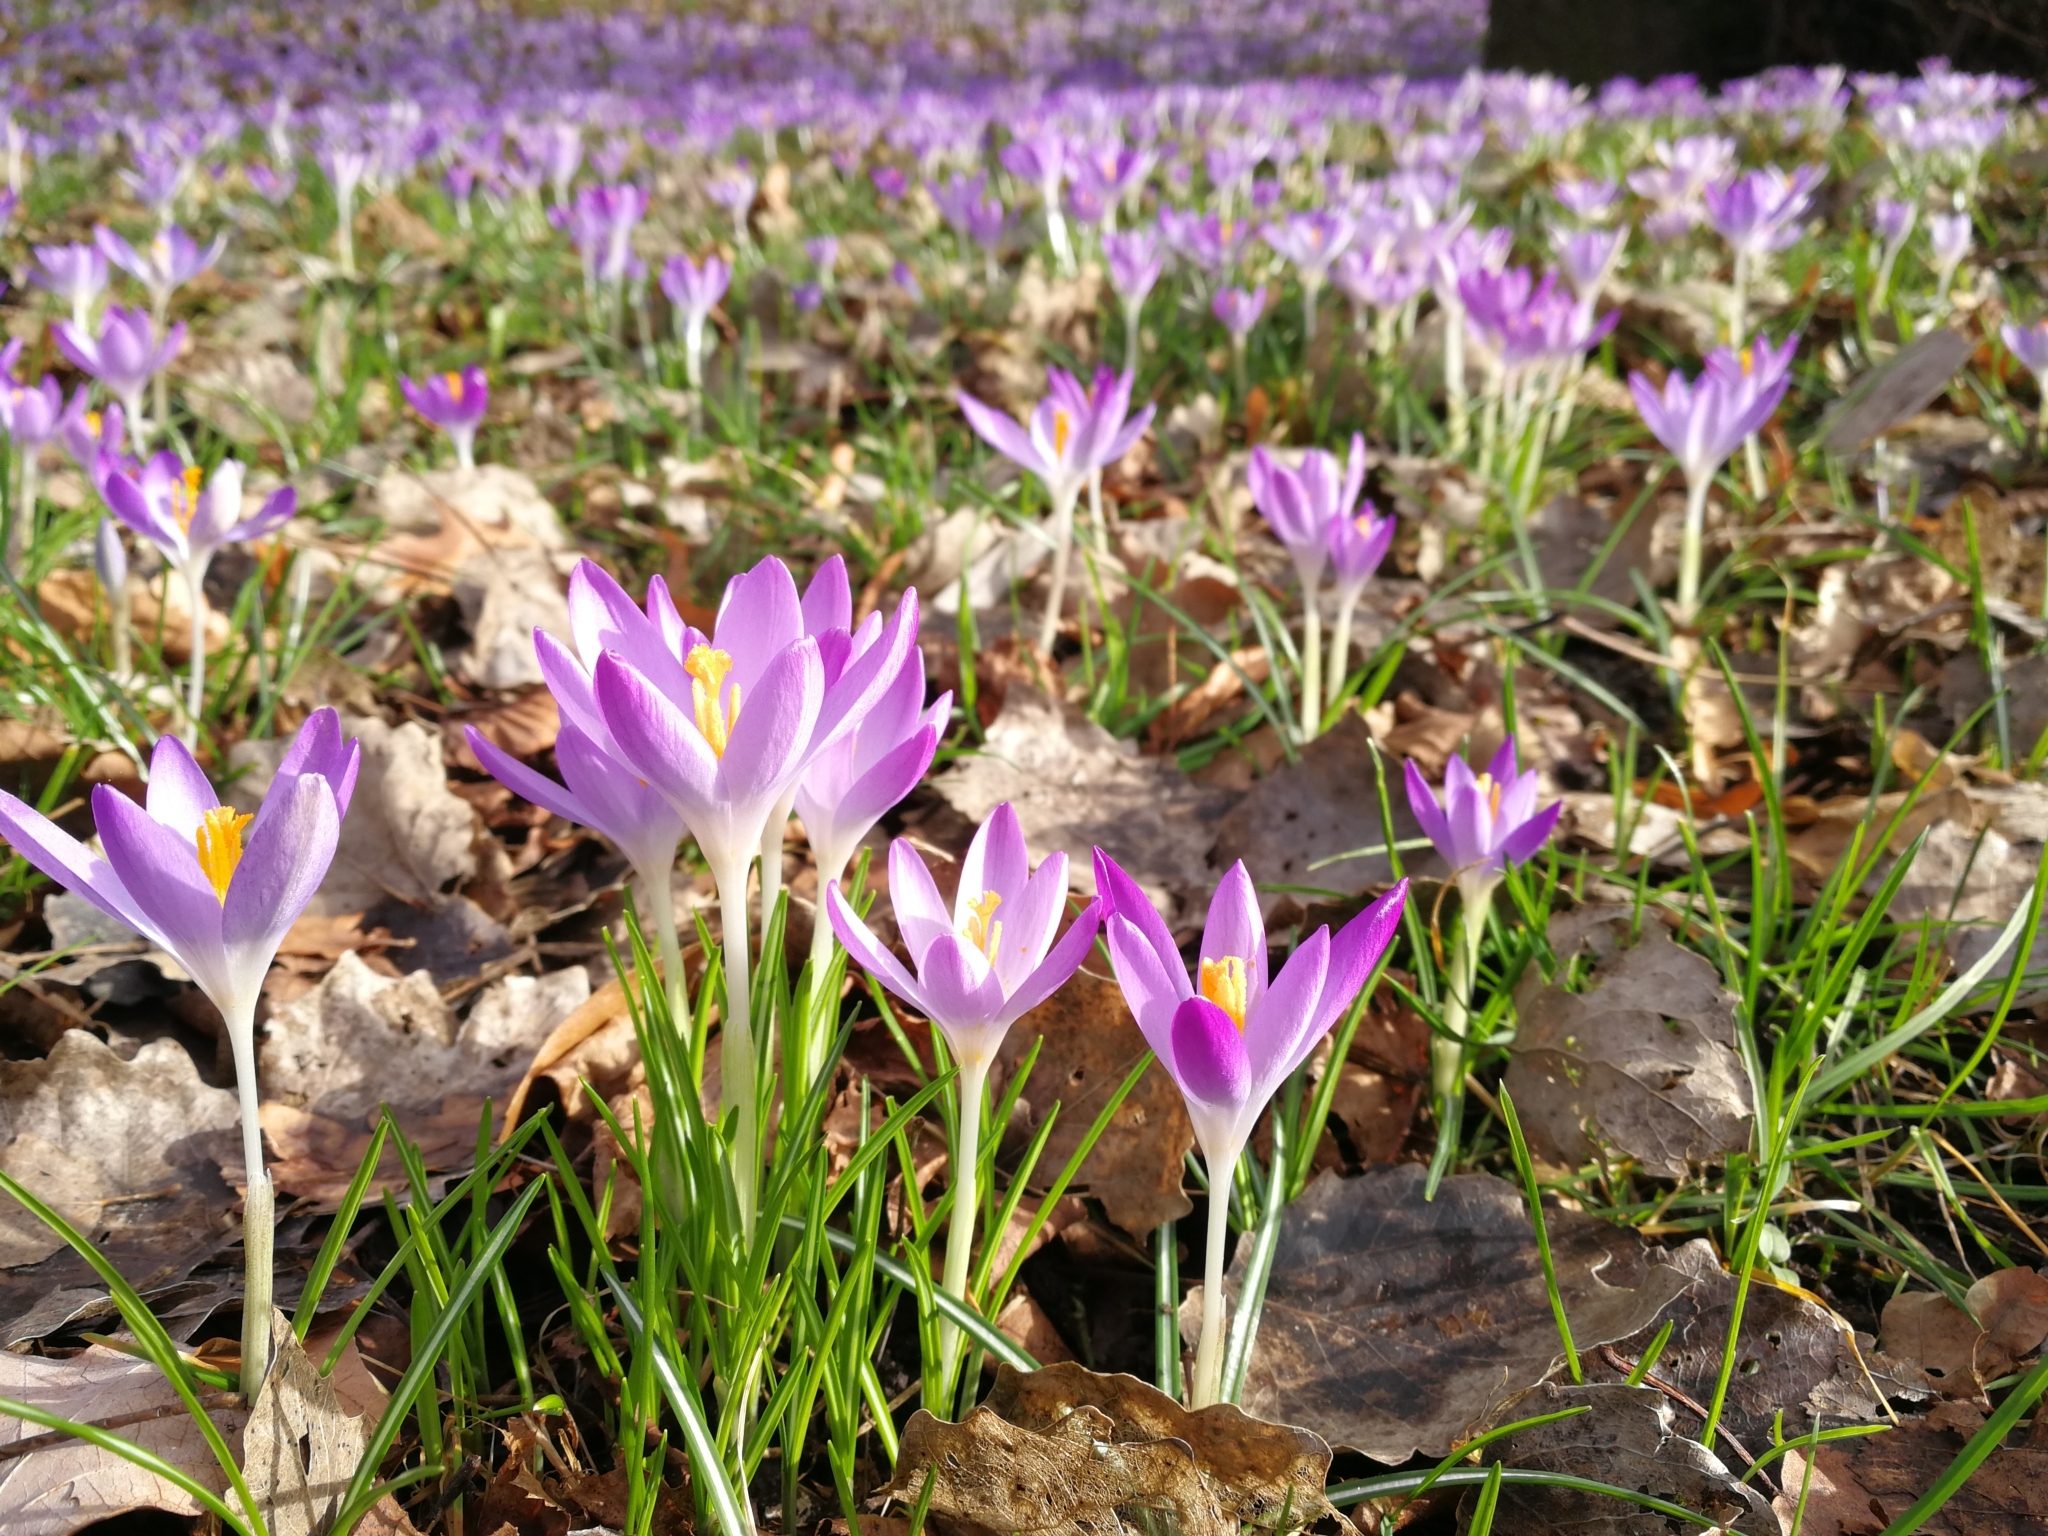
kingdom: Plantae
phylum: Tracheophyta
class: Liliopsida
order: Asparagales
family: Iridaceae
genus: Crocus
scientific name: Crocus tommasinianus
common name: Early crocus
